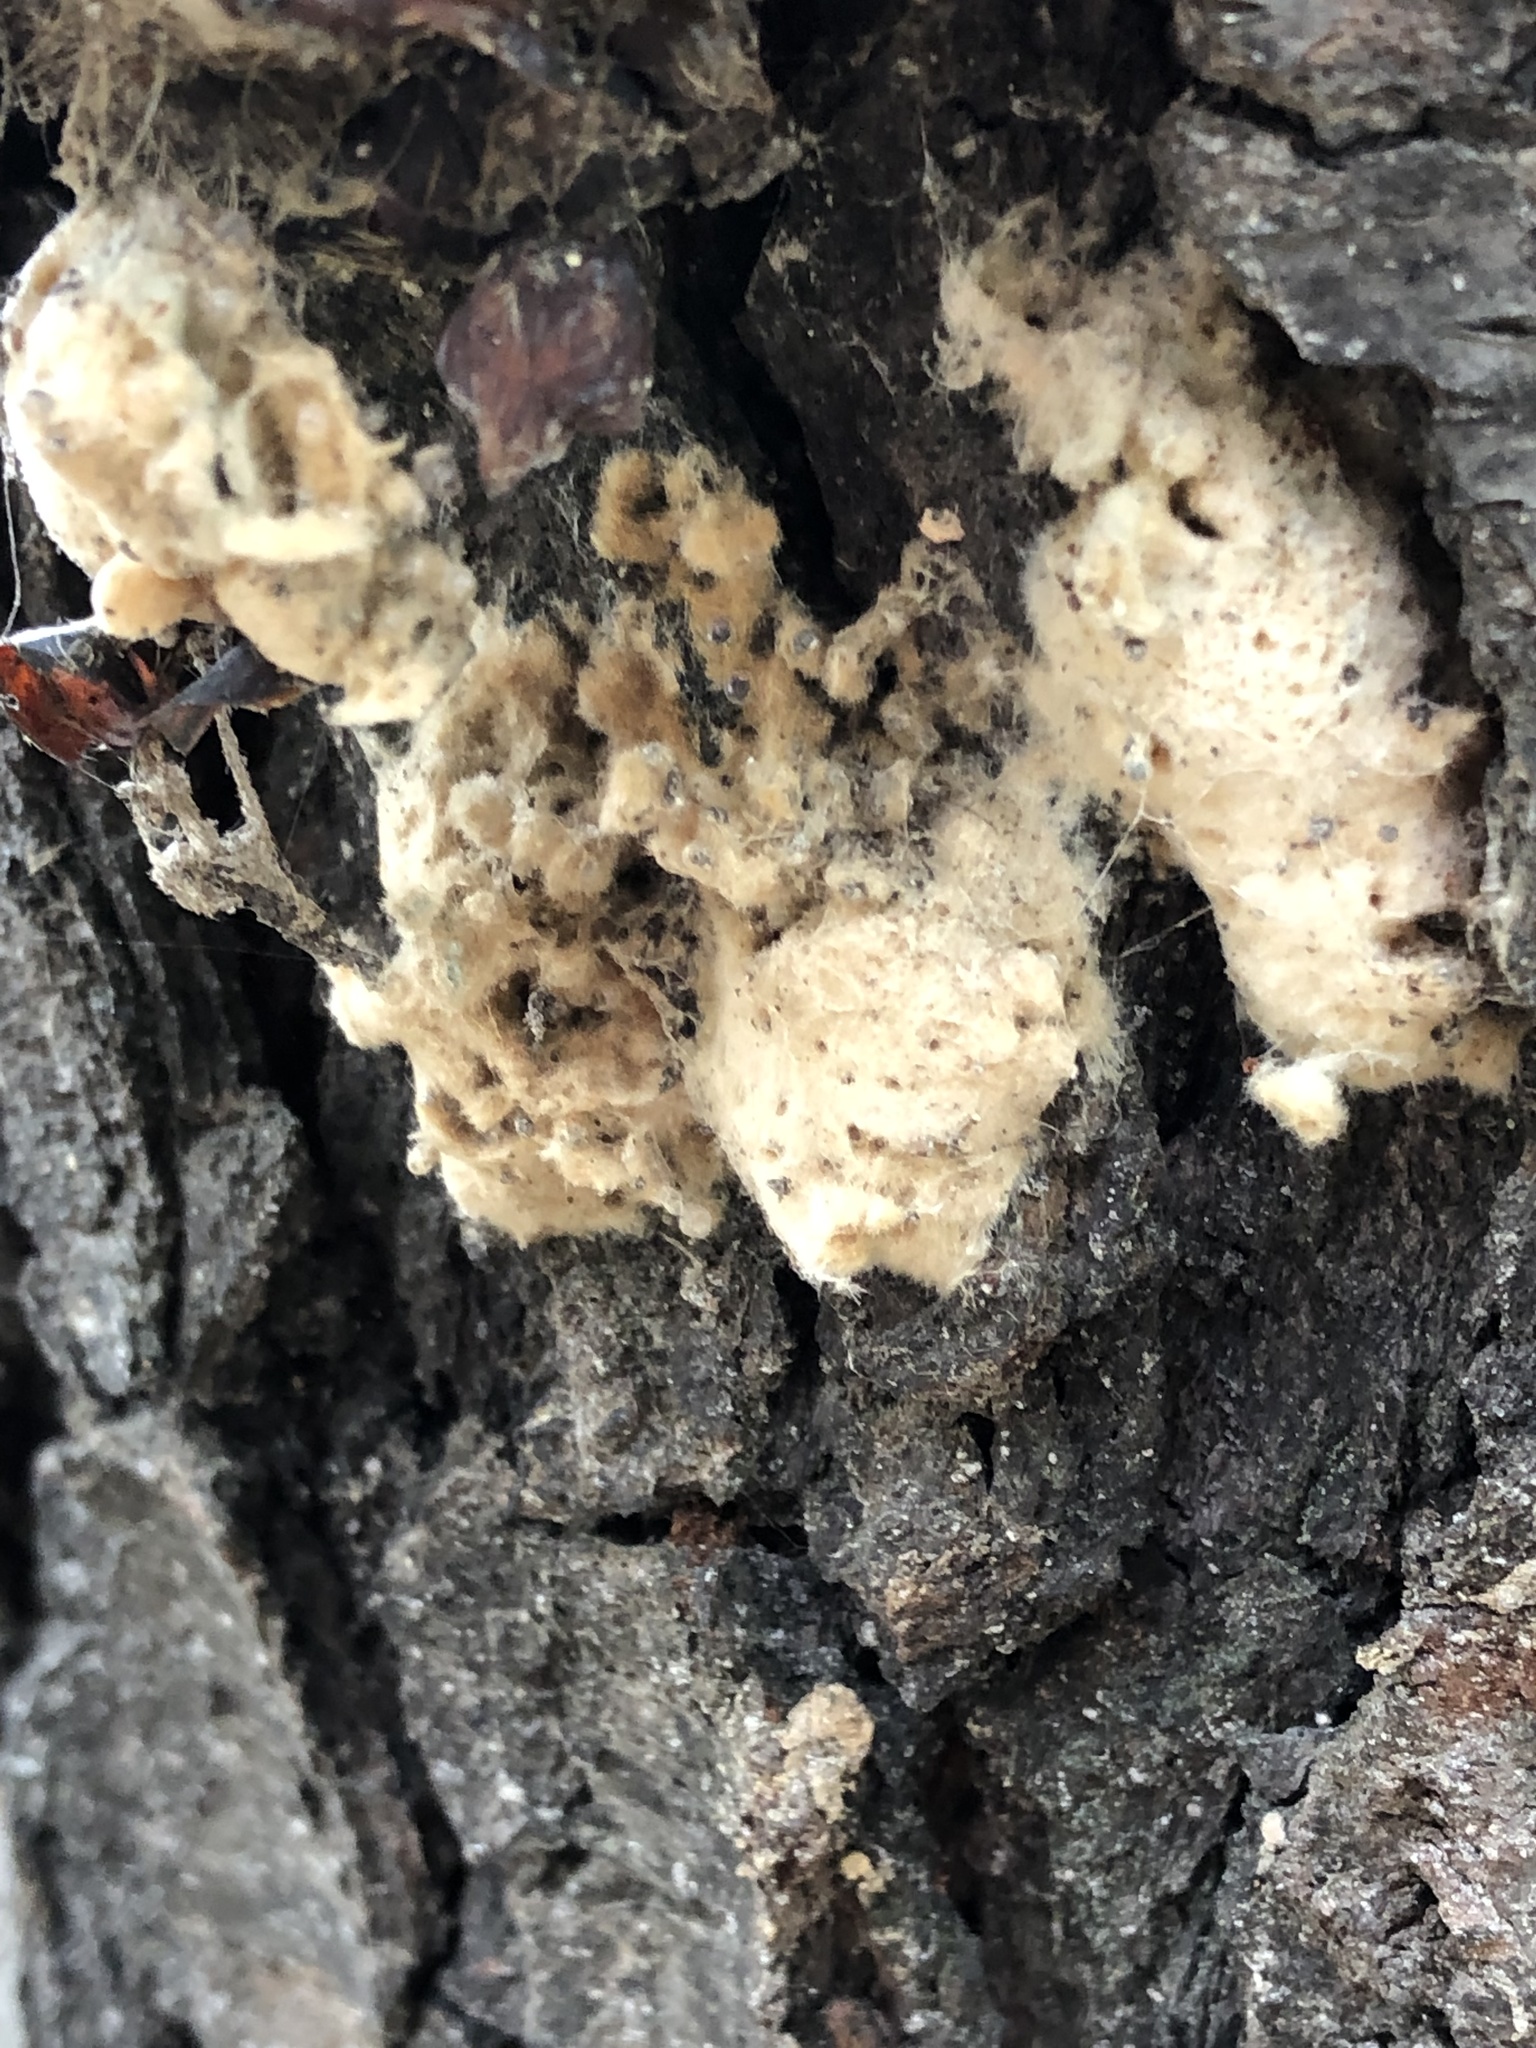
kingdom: Animalia
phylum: Arthropoda
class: Insecta
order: Lepidoptera
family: Erebidae
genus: Lymantria
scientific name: Lymantria dispar
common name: Gypsy moth
